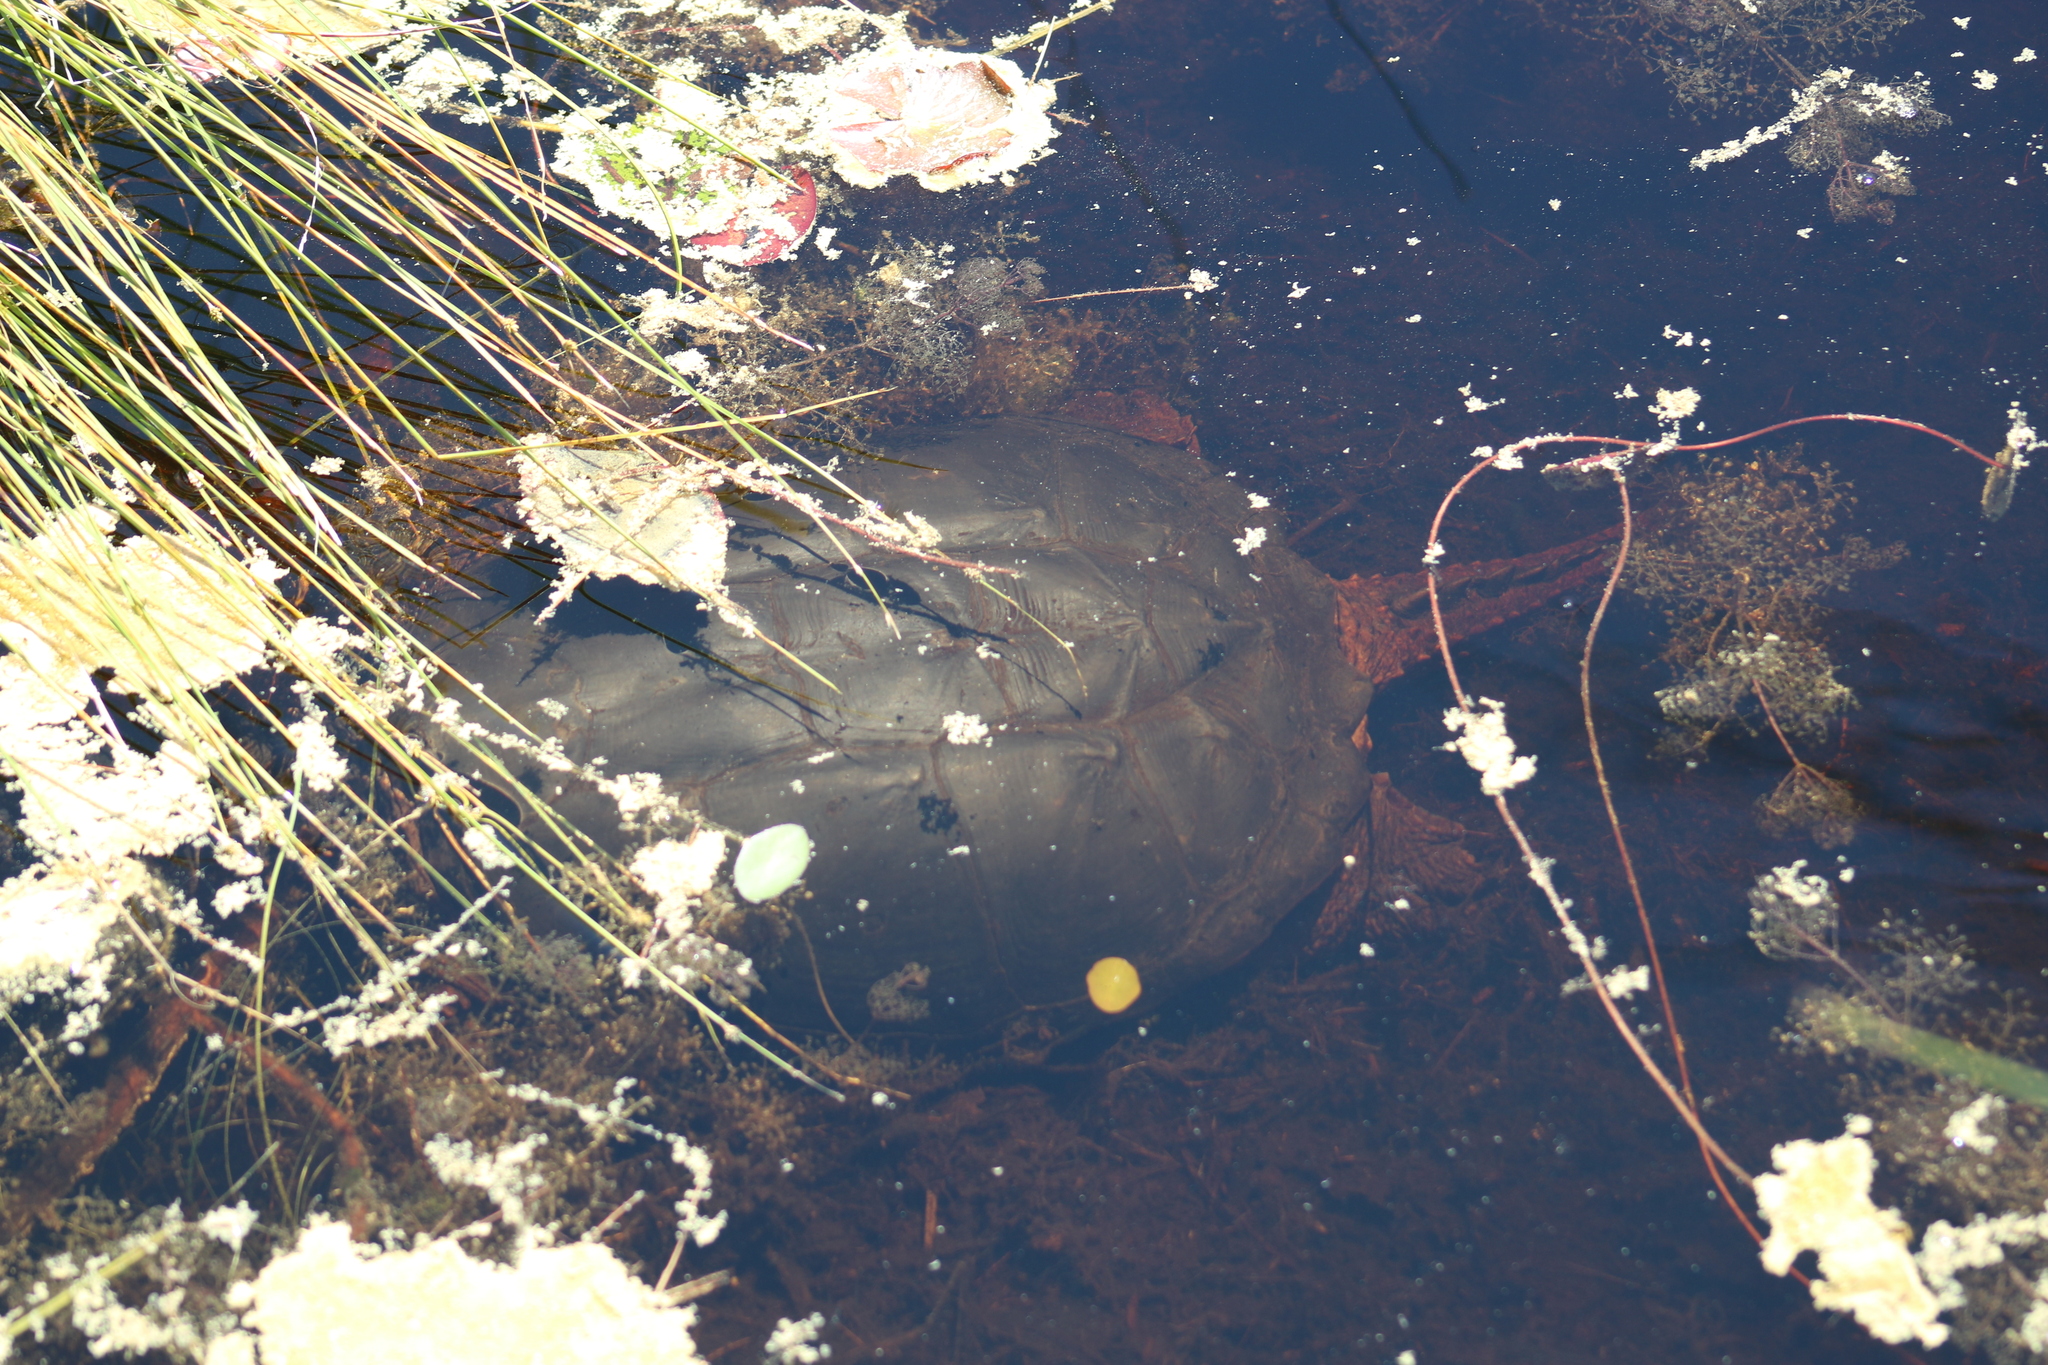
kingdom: Animalia
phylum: Chordata
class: Testudines
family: Chelydridae
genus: Chelydra
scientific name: Chelydra serpentina
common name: Common snapping turtle
